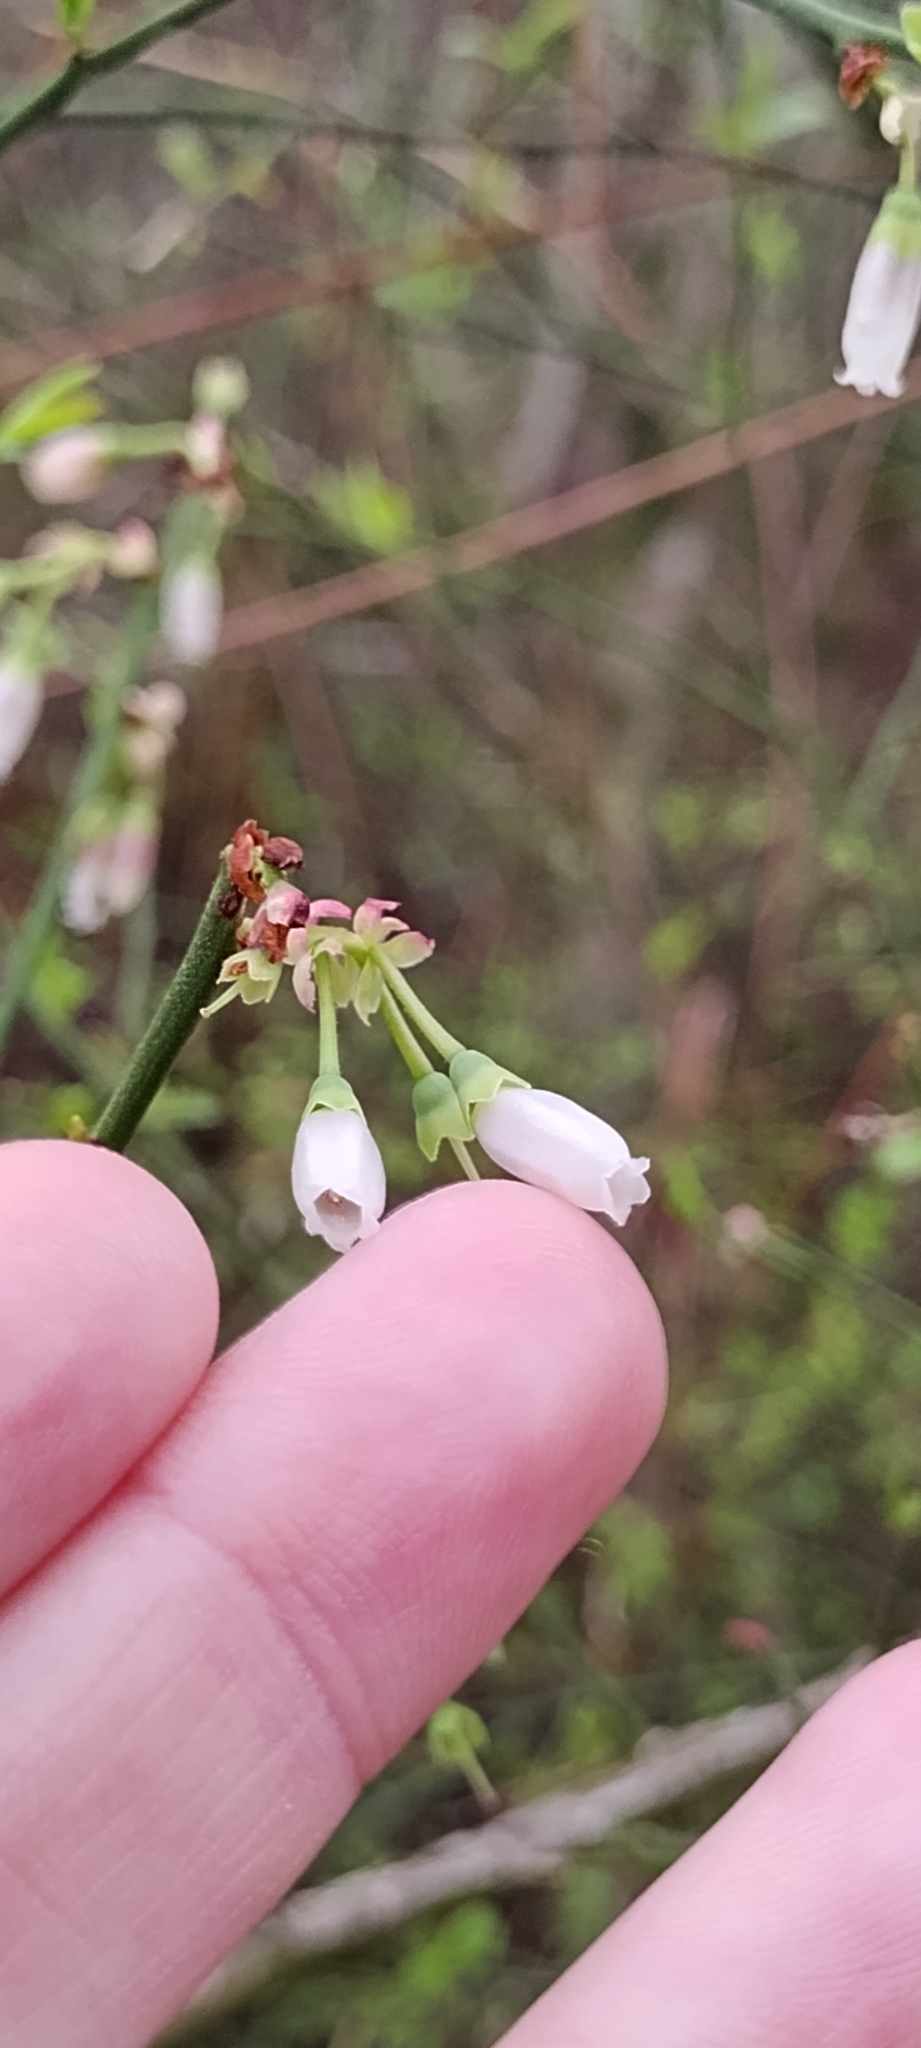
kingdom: Plantae
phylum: Tracheophyta
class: Magnoliopsida
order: Ericales
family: Ericaceae
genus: Vaccinium
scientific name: Vaccinium corymbosum
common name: Blueberry
